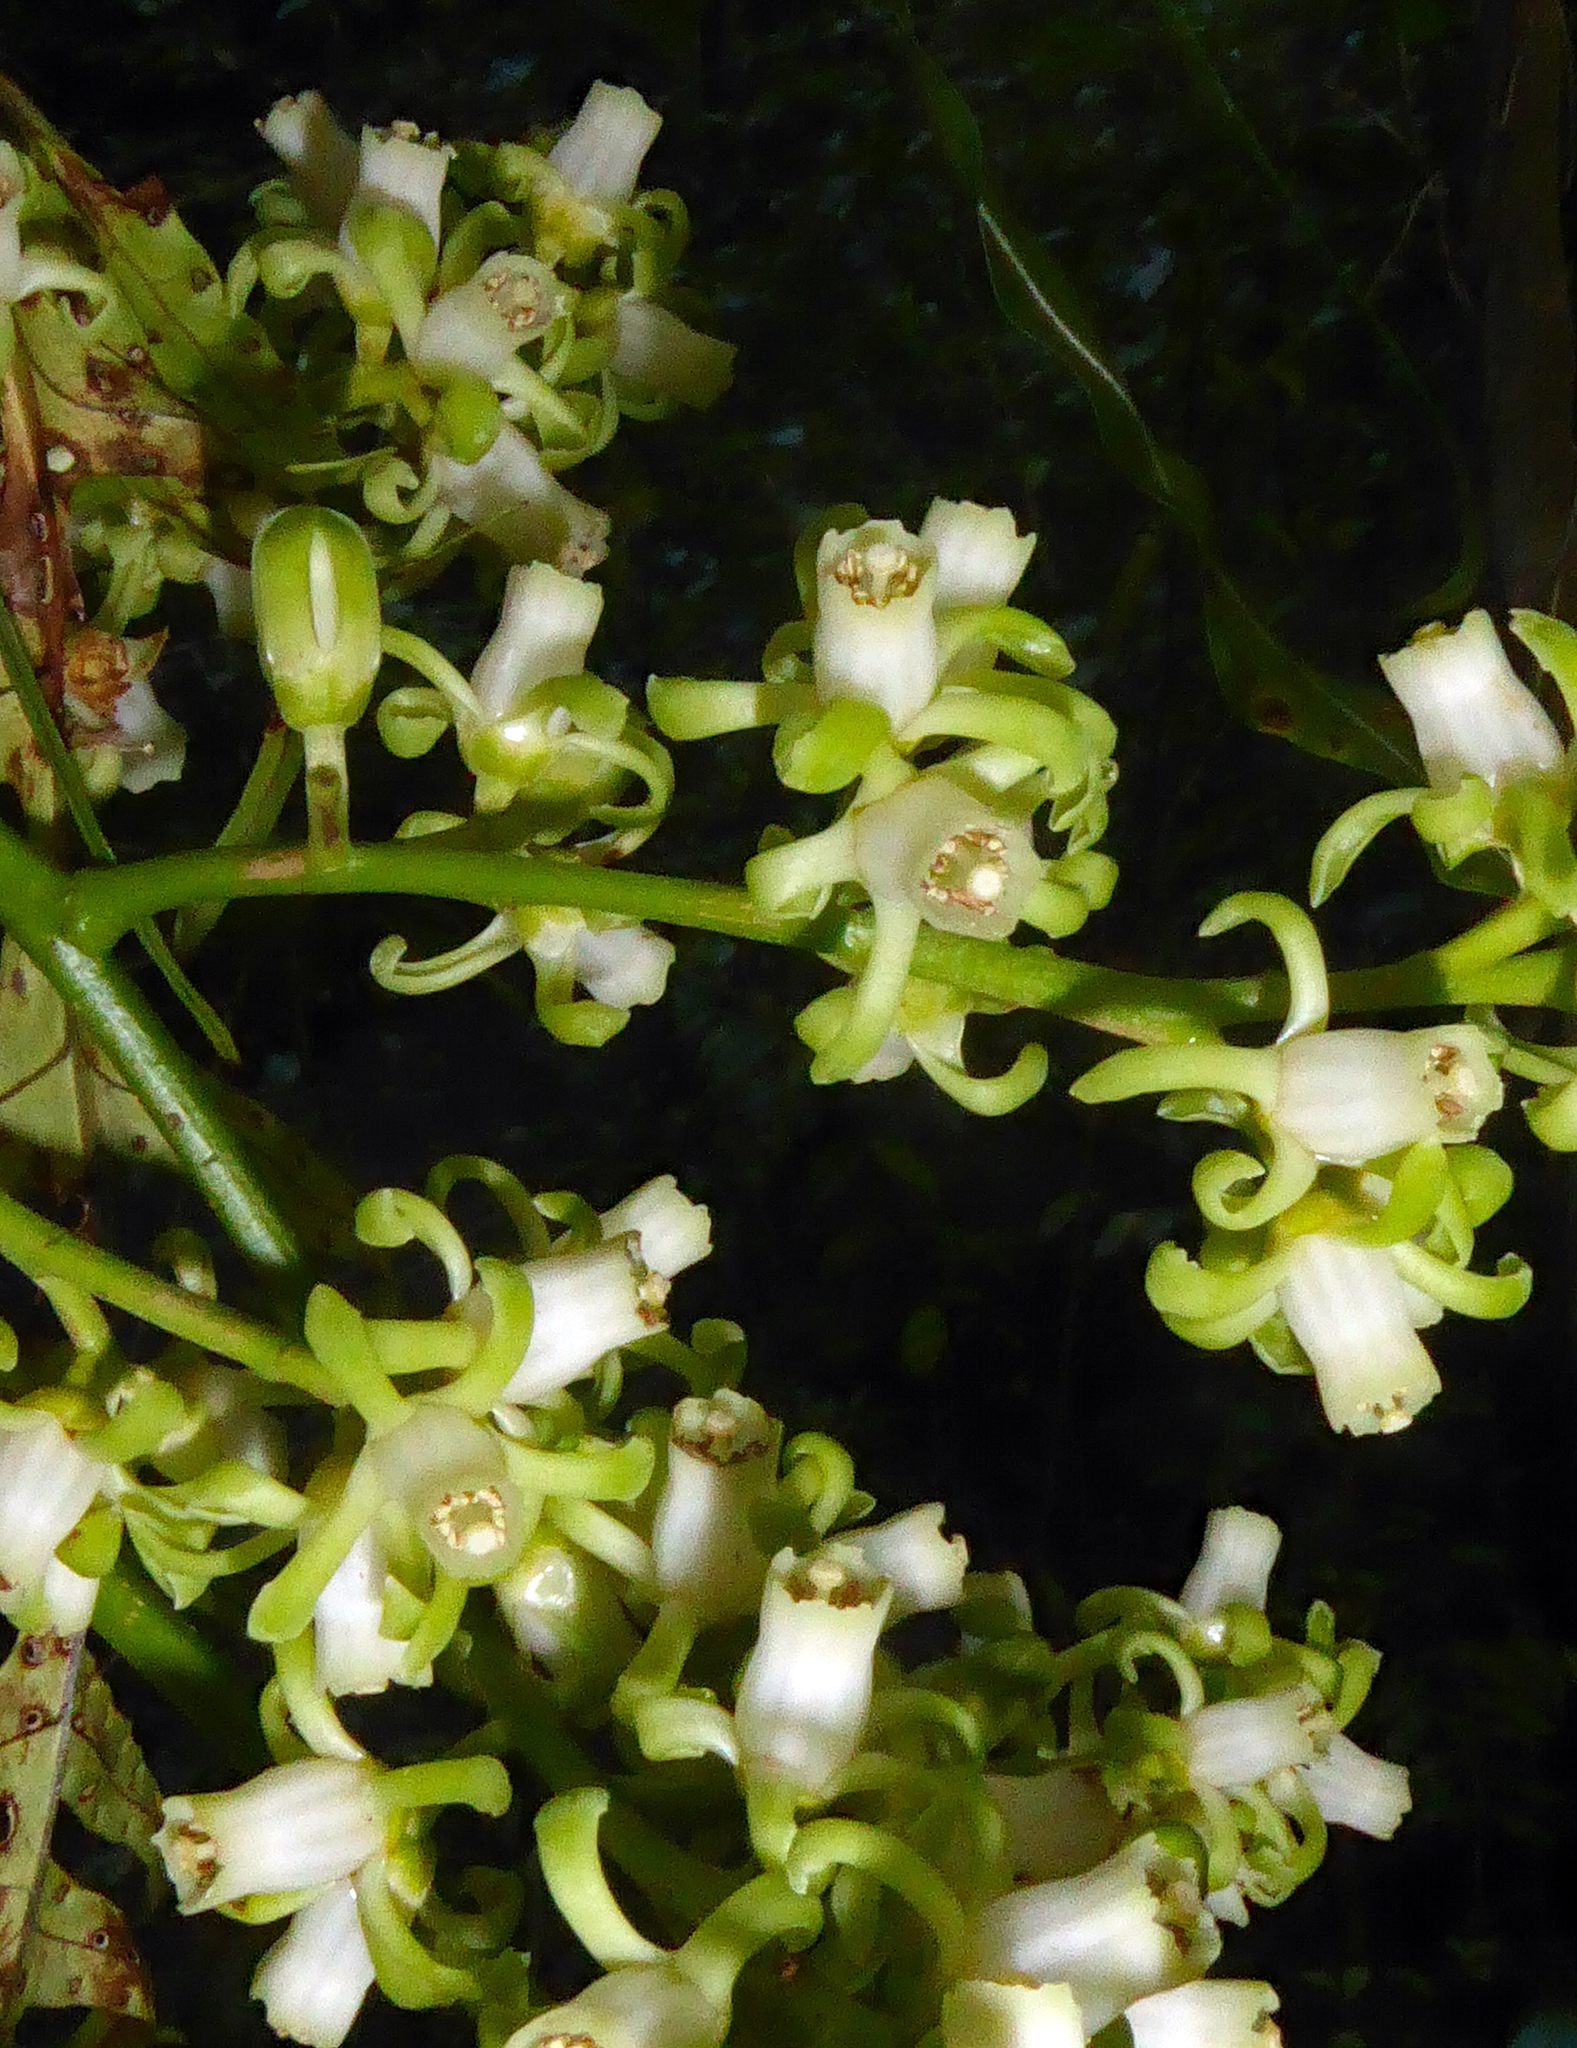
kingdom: Plantae
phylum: Tracheophyta
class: Magnoliopsida
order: Sapindales
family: Meliaceae
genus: Didymocheton
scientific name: Didymocheton spectabilis
